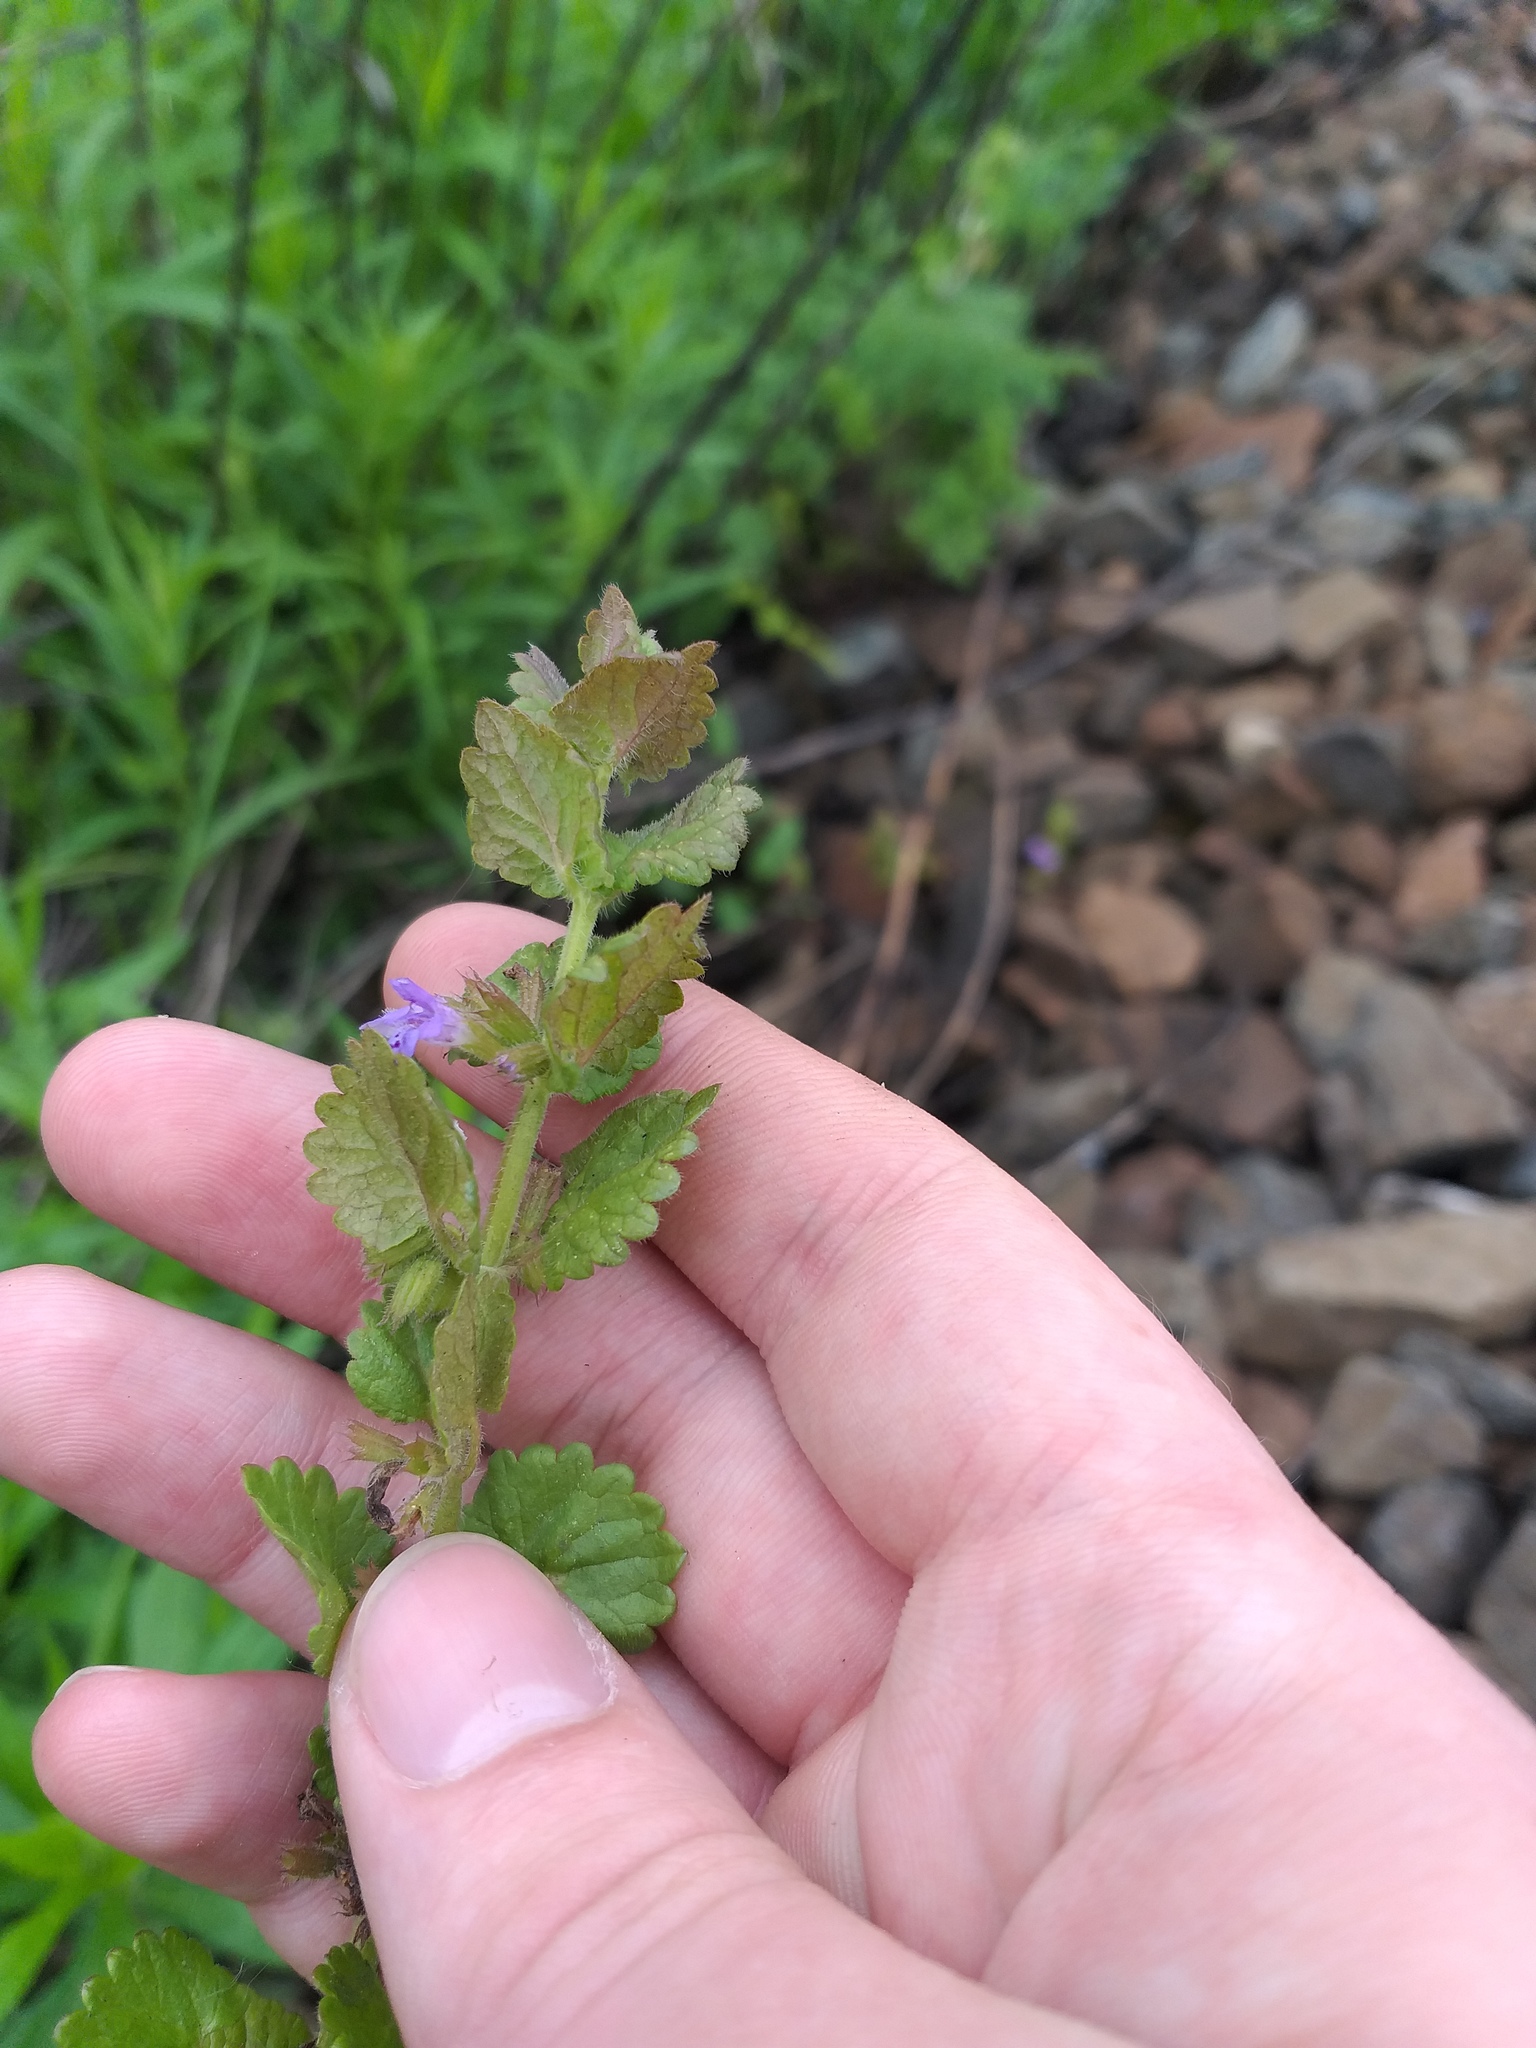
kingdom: Plantae
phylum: Tracheophyta
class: Magnoliopsida
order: Lamiales
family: Lamiaceae
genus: Glechoma
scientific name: Glechoma hederacea
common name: Ground ivy
